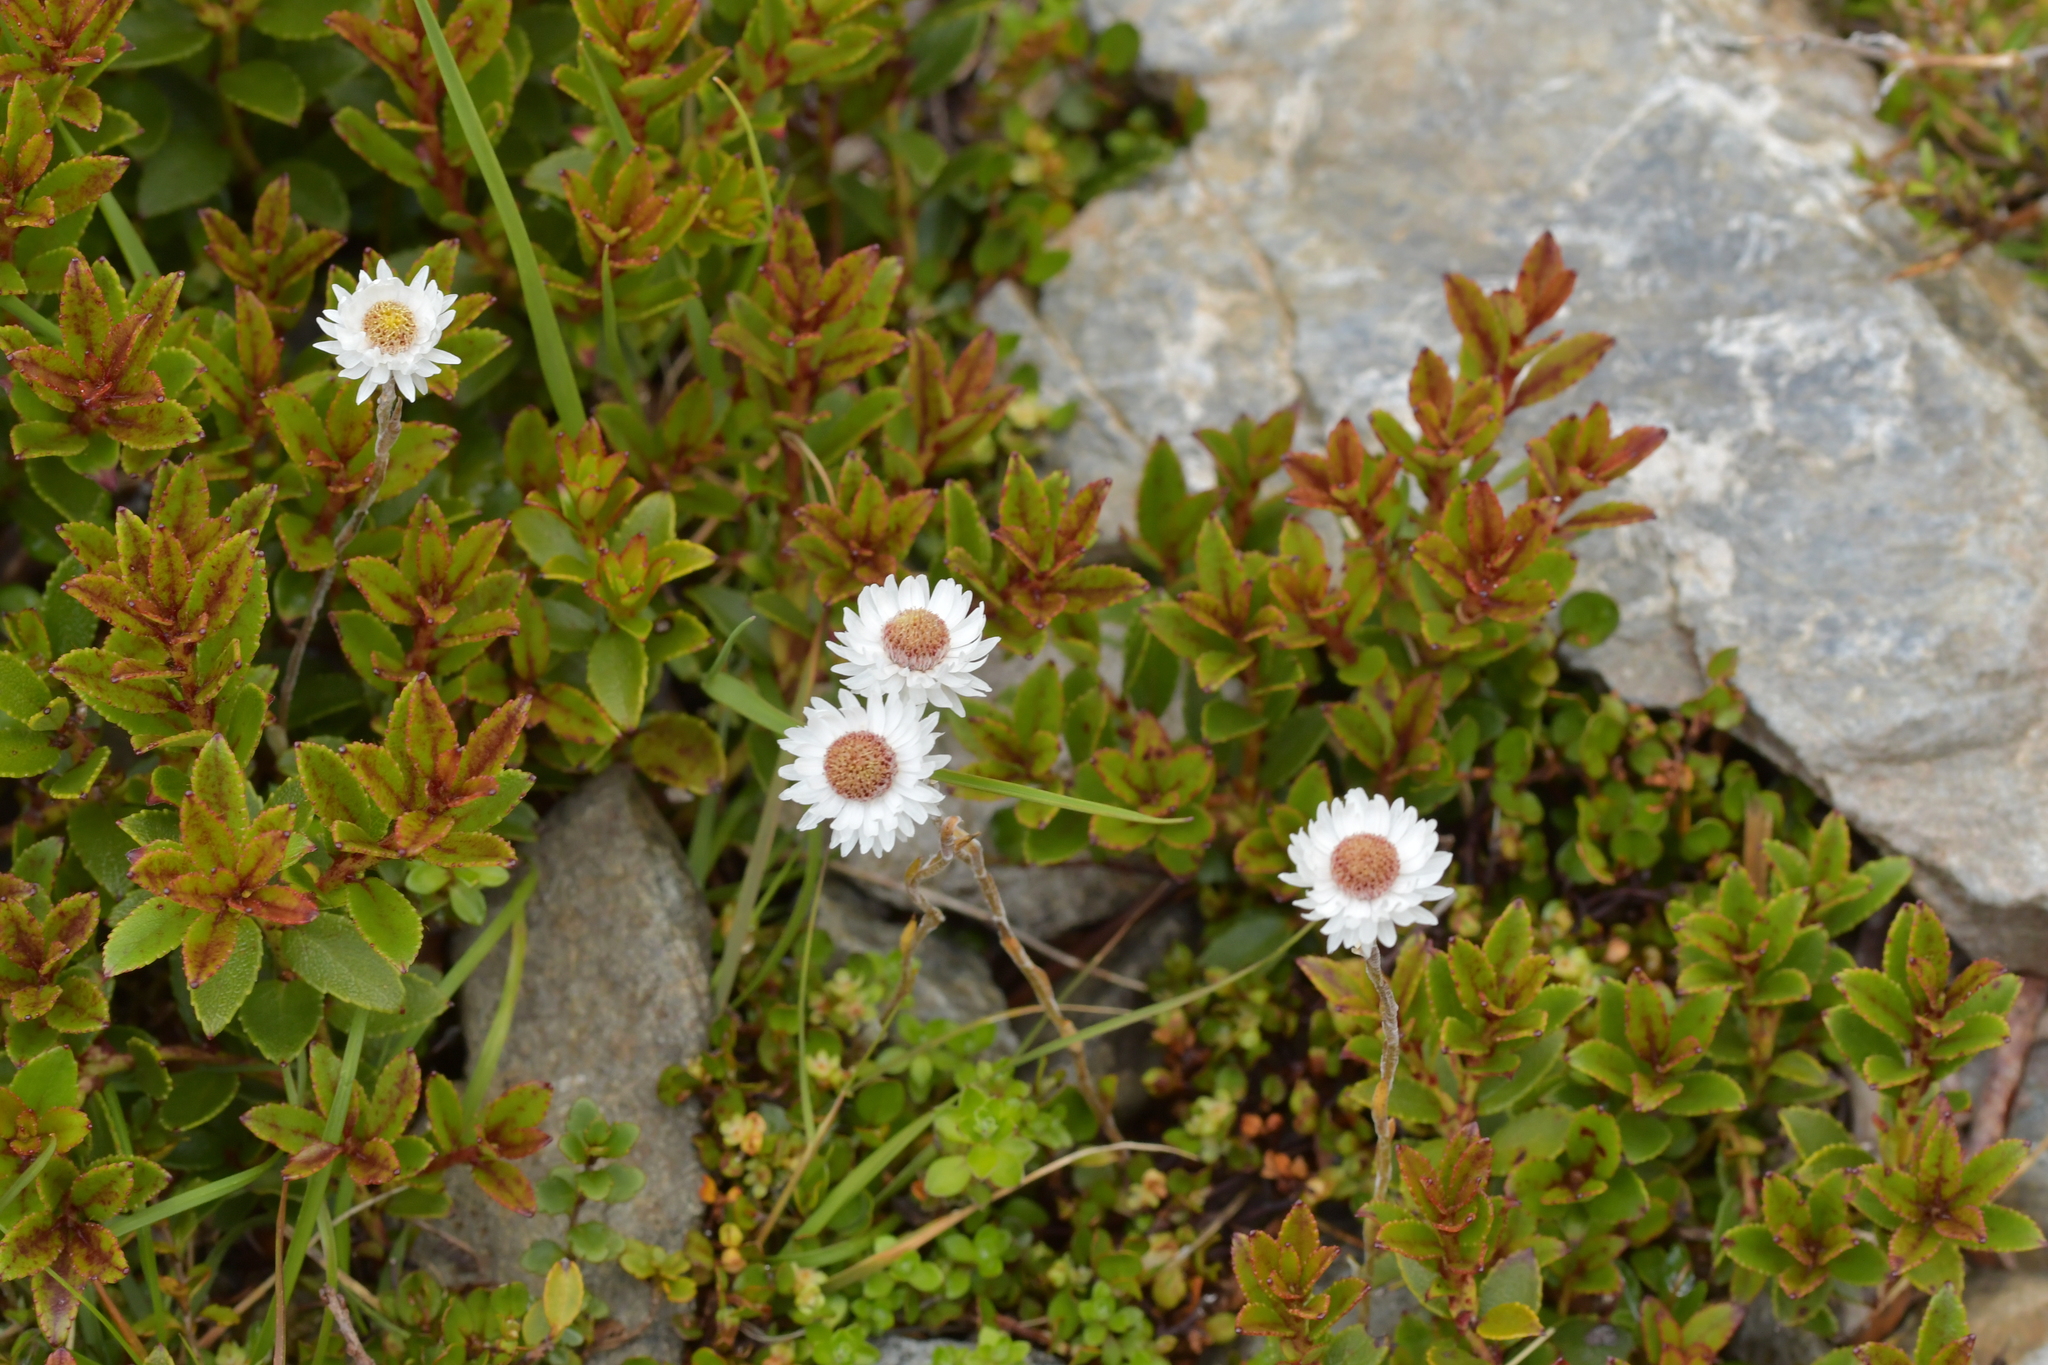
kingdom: Plantae
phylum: Tracheophyta
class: Magnoliopsida
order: Asterales
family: Asteraceae
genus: Anaphalioides
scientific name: Anaphalioides bellidioides
